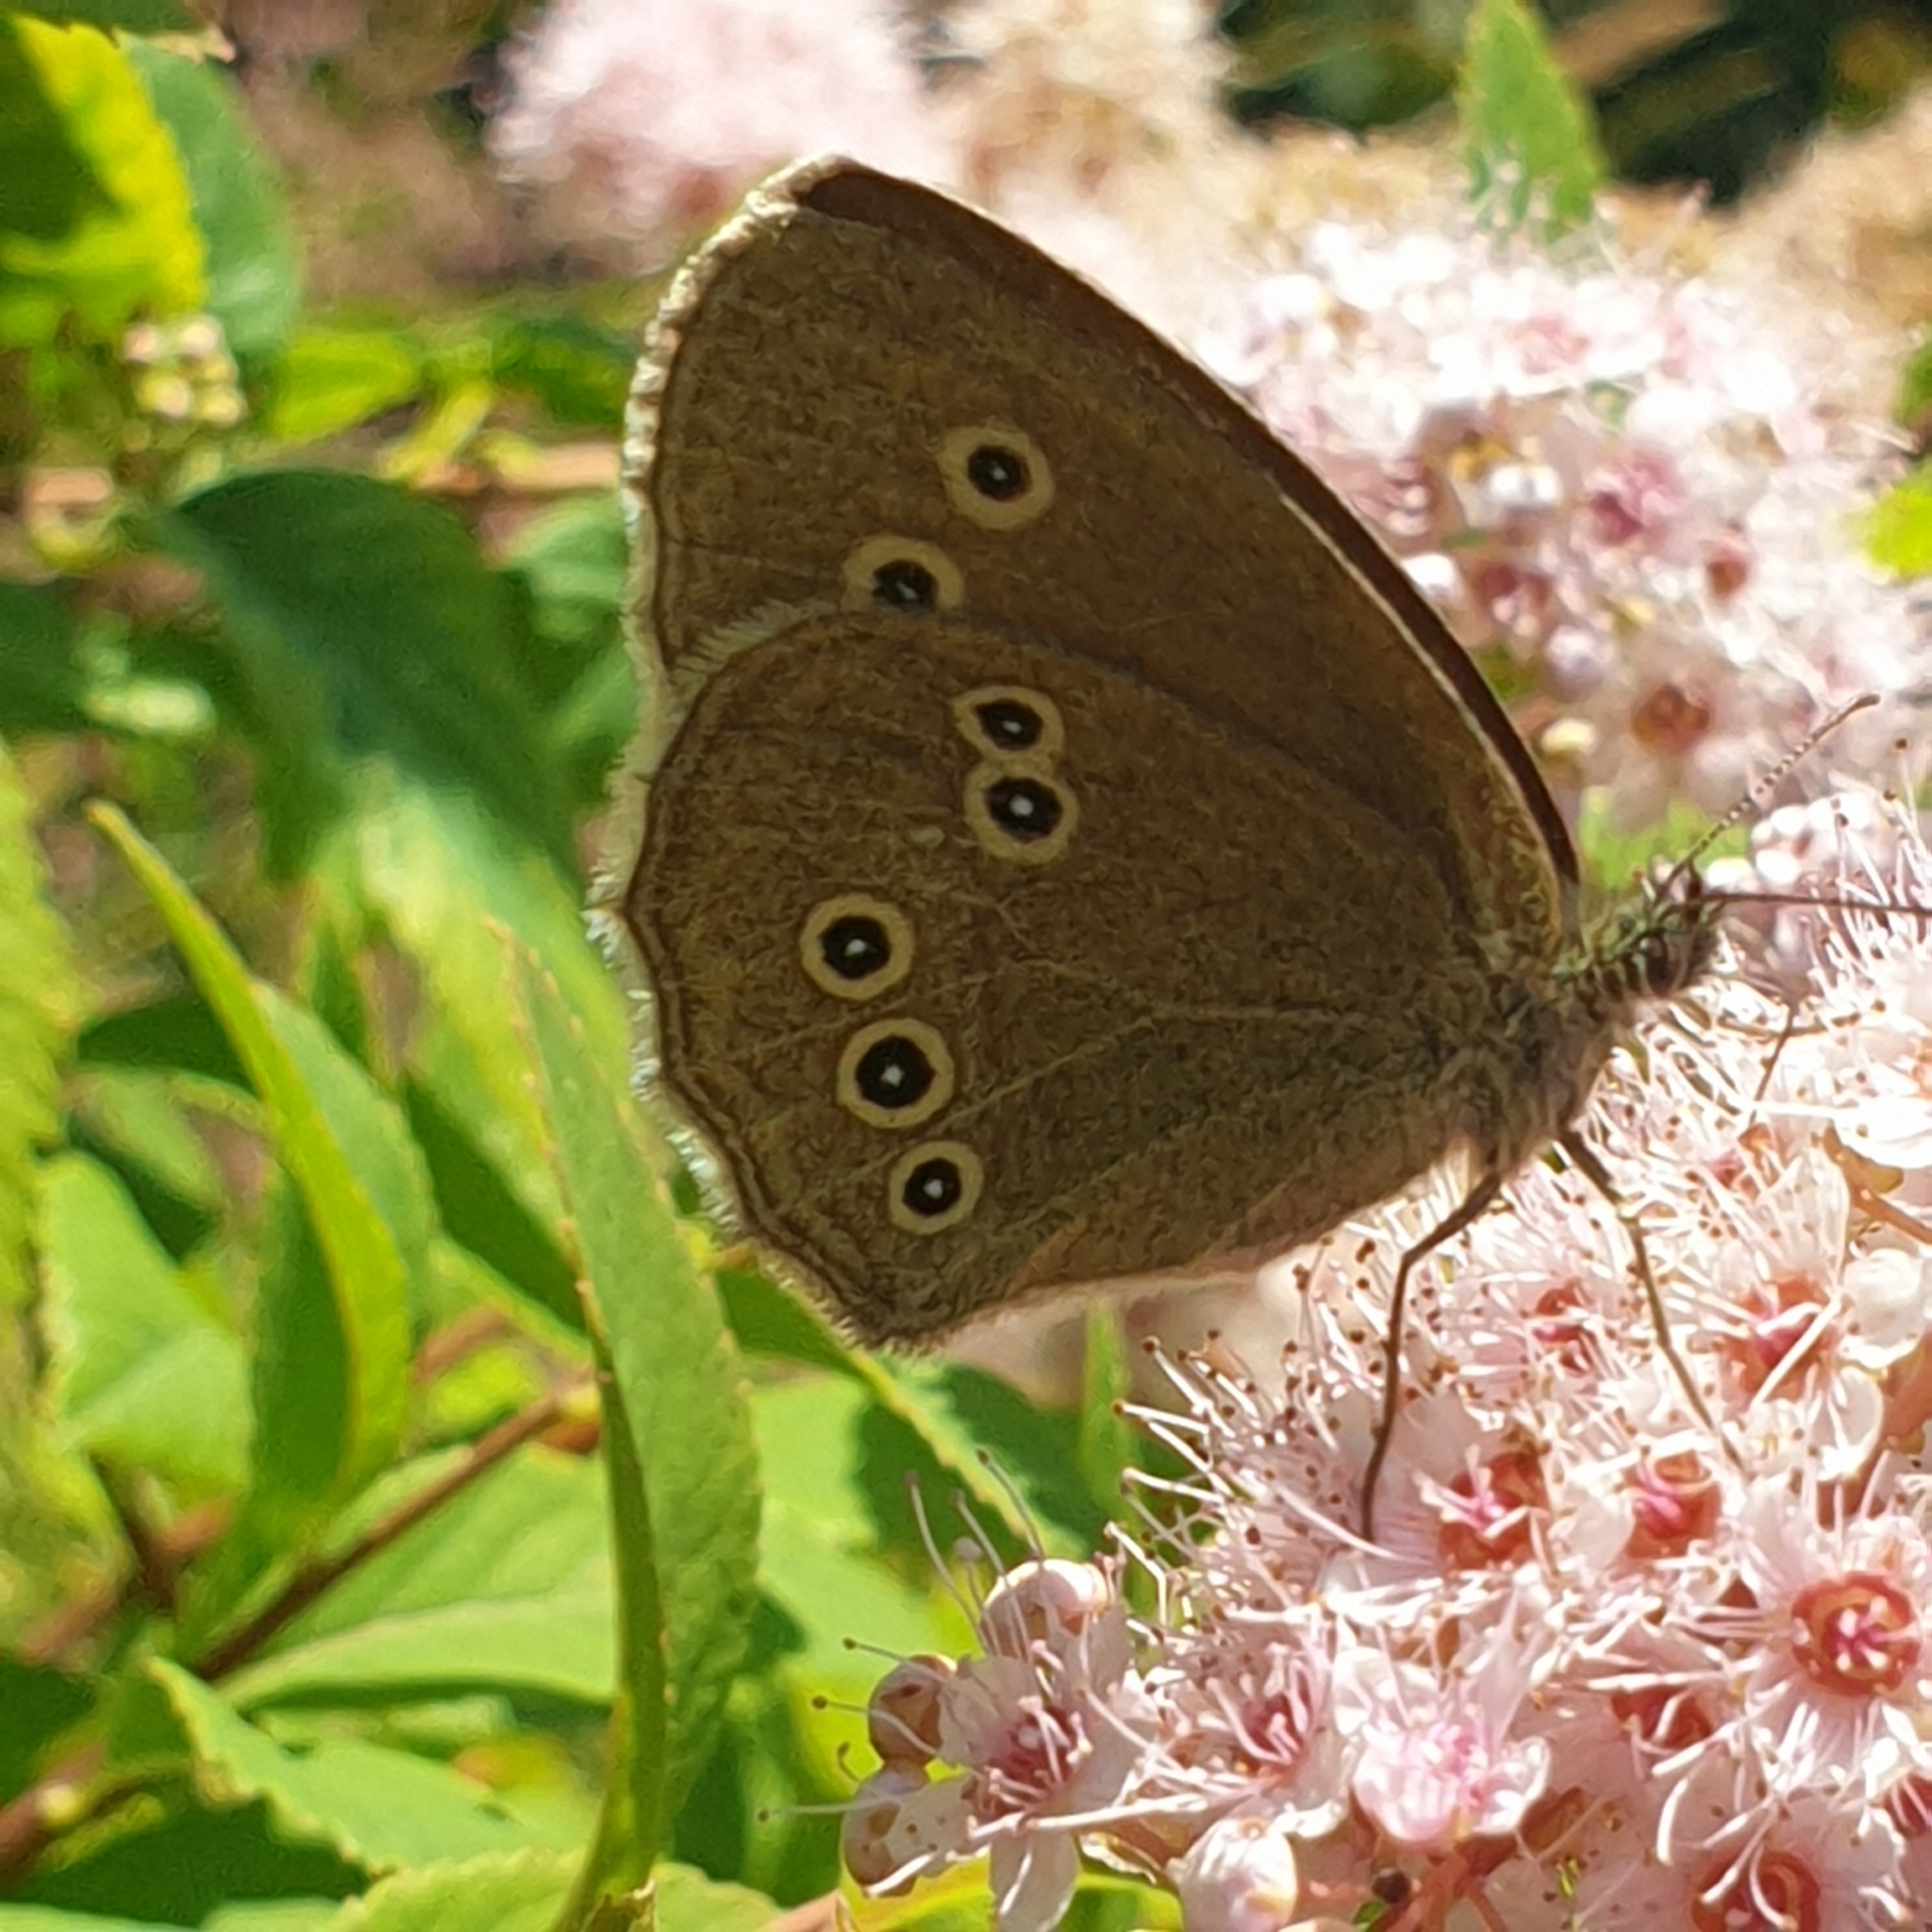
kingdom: Animalia
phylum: Arthropoda
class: Insecta
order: Lepidoptera
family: Nymphalidae
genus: Aphantopus
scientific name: Aphantopus hyperantus
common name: Ringlet
